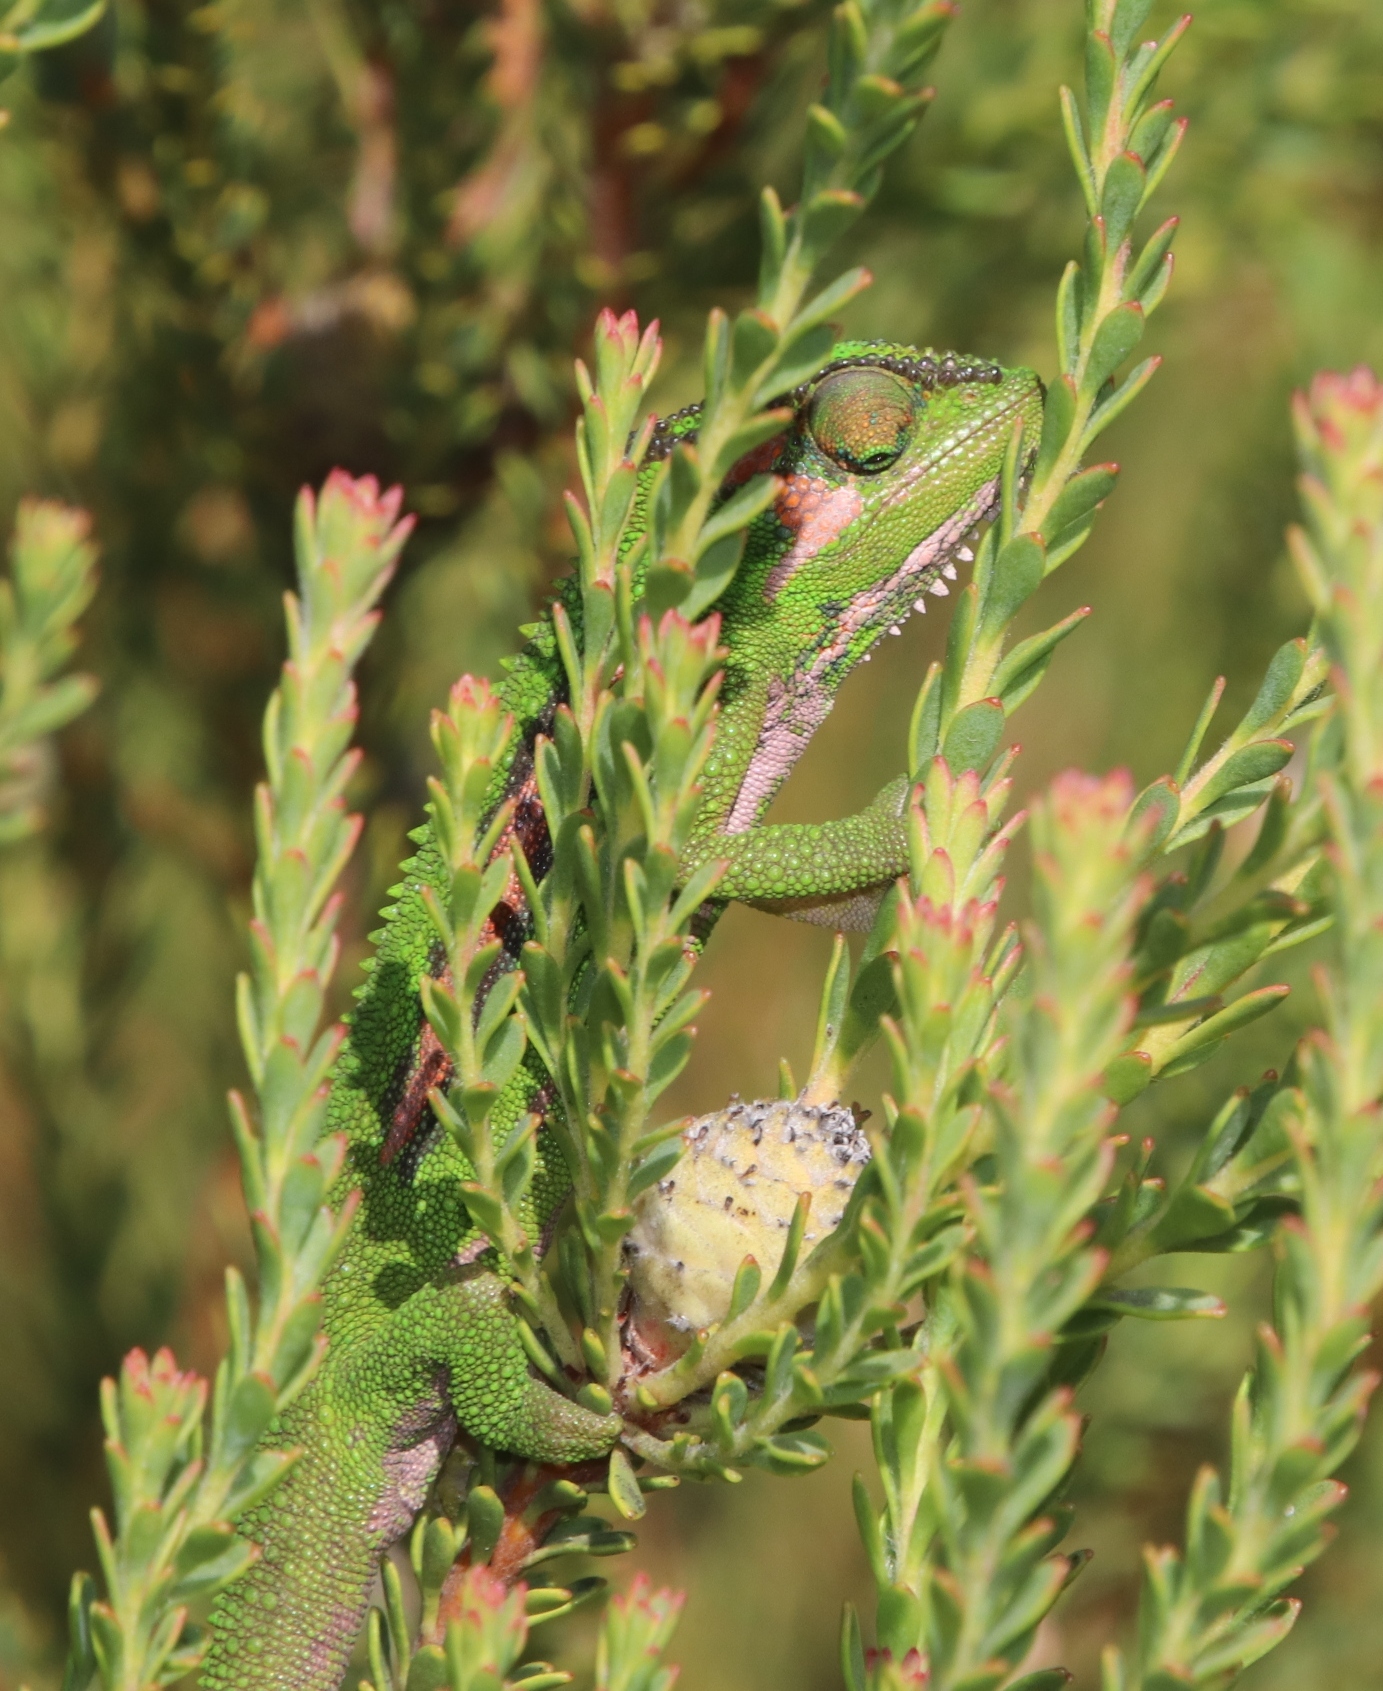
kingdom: Animalia
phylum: Chordata
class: Squamata
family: Chamaeleonidae
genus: Bradypodion
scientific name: Bradypodion pumilum
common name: Cape dwarf chameleon
